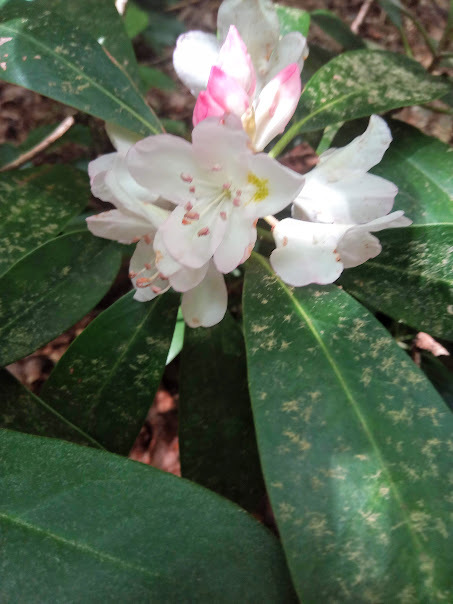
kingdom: Plantae
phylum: Tracheophyta
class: Magnoliopsida
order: Ericales
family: Ericaceae
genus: Rhododendron
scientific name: Rhododendron maximum
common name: Great rhododendron
